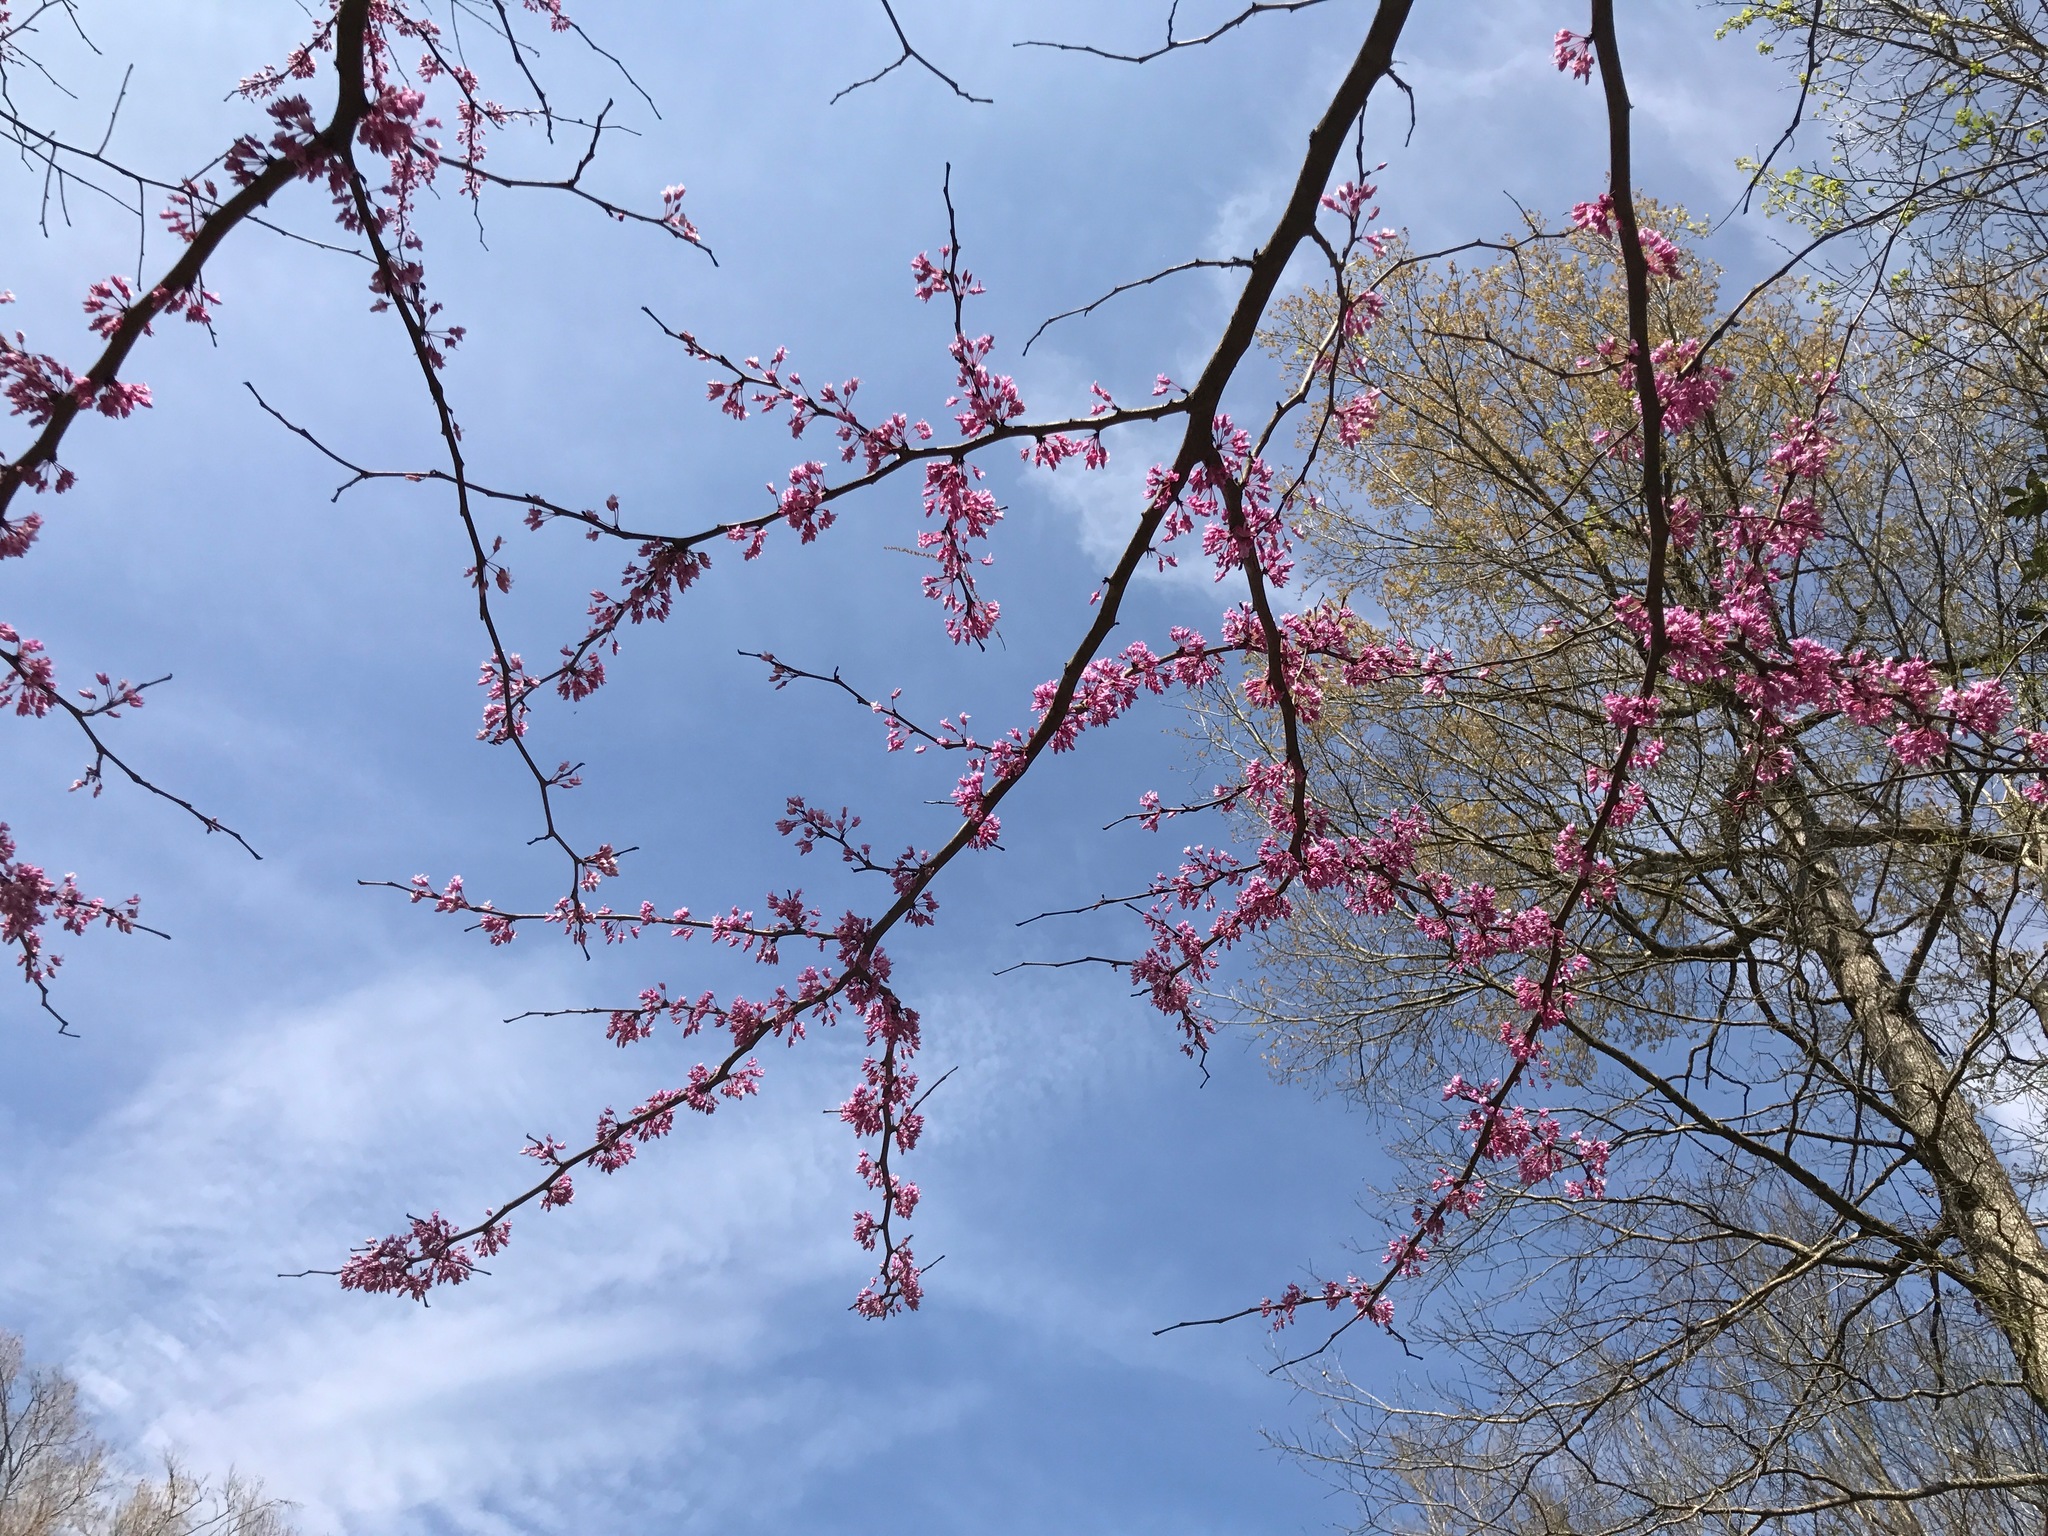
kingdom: Plantae
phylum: Tracheophyta
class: Magnoliopsida
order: Fabales
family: Fabaceae
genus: Cercis
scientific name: Cercis canadensis
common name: Eastern redbud
